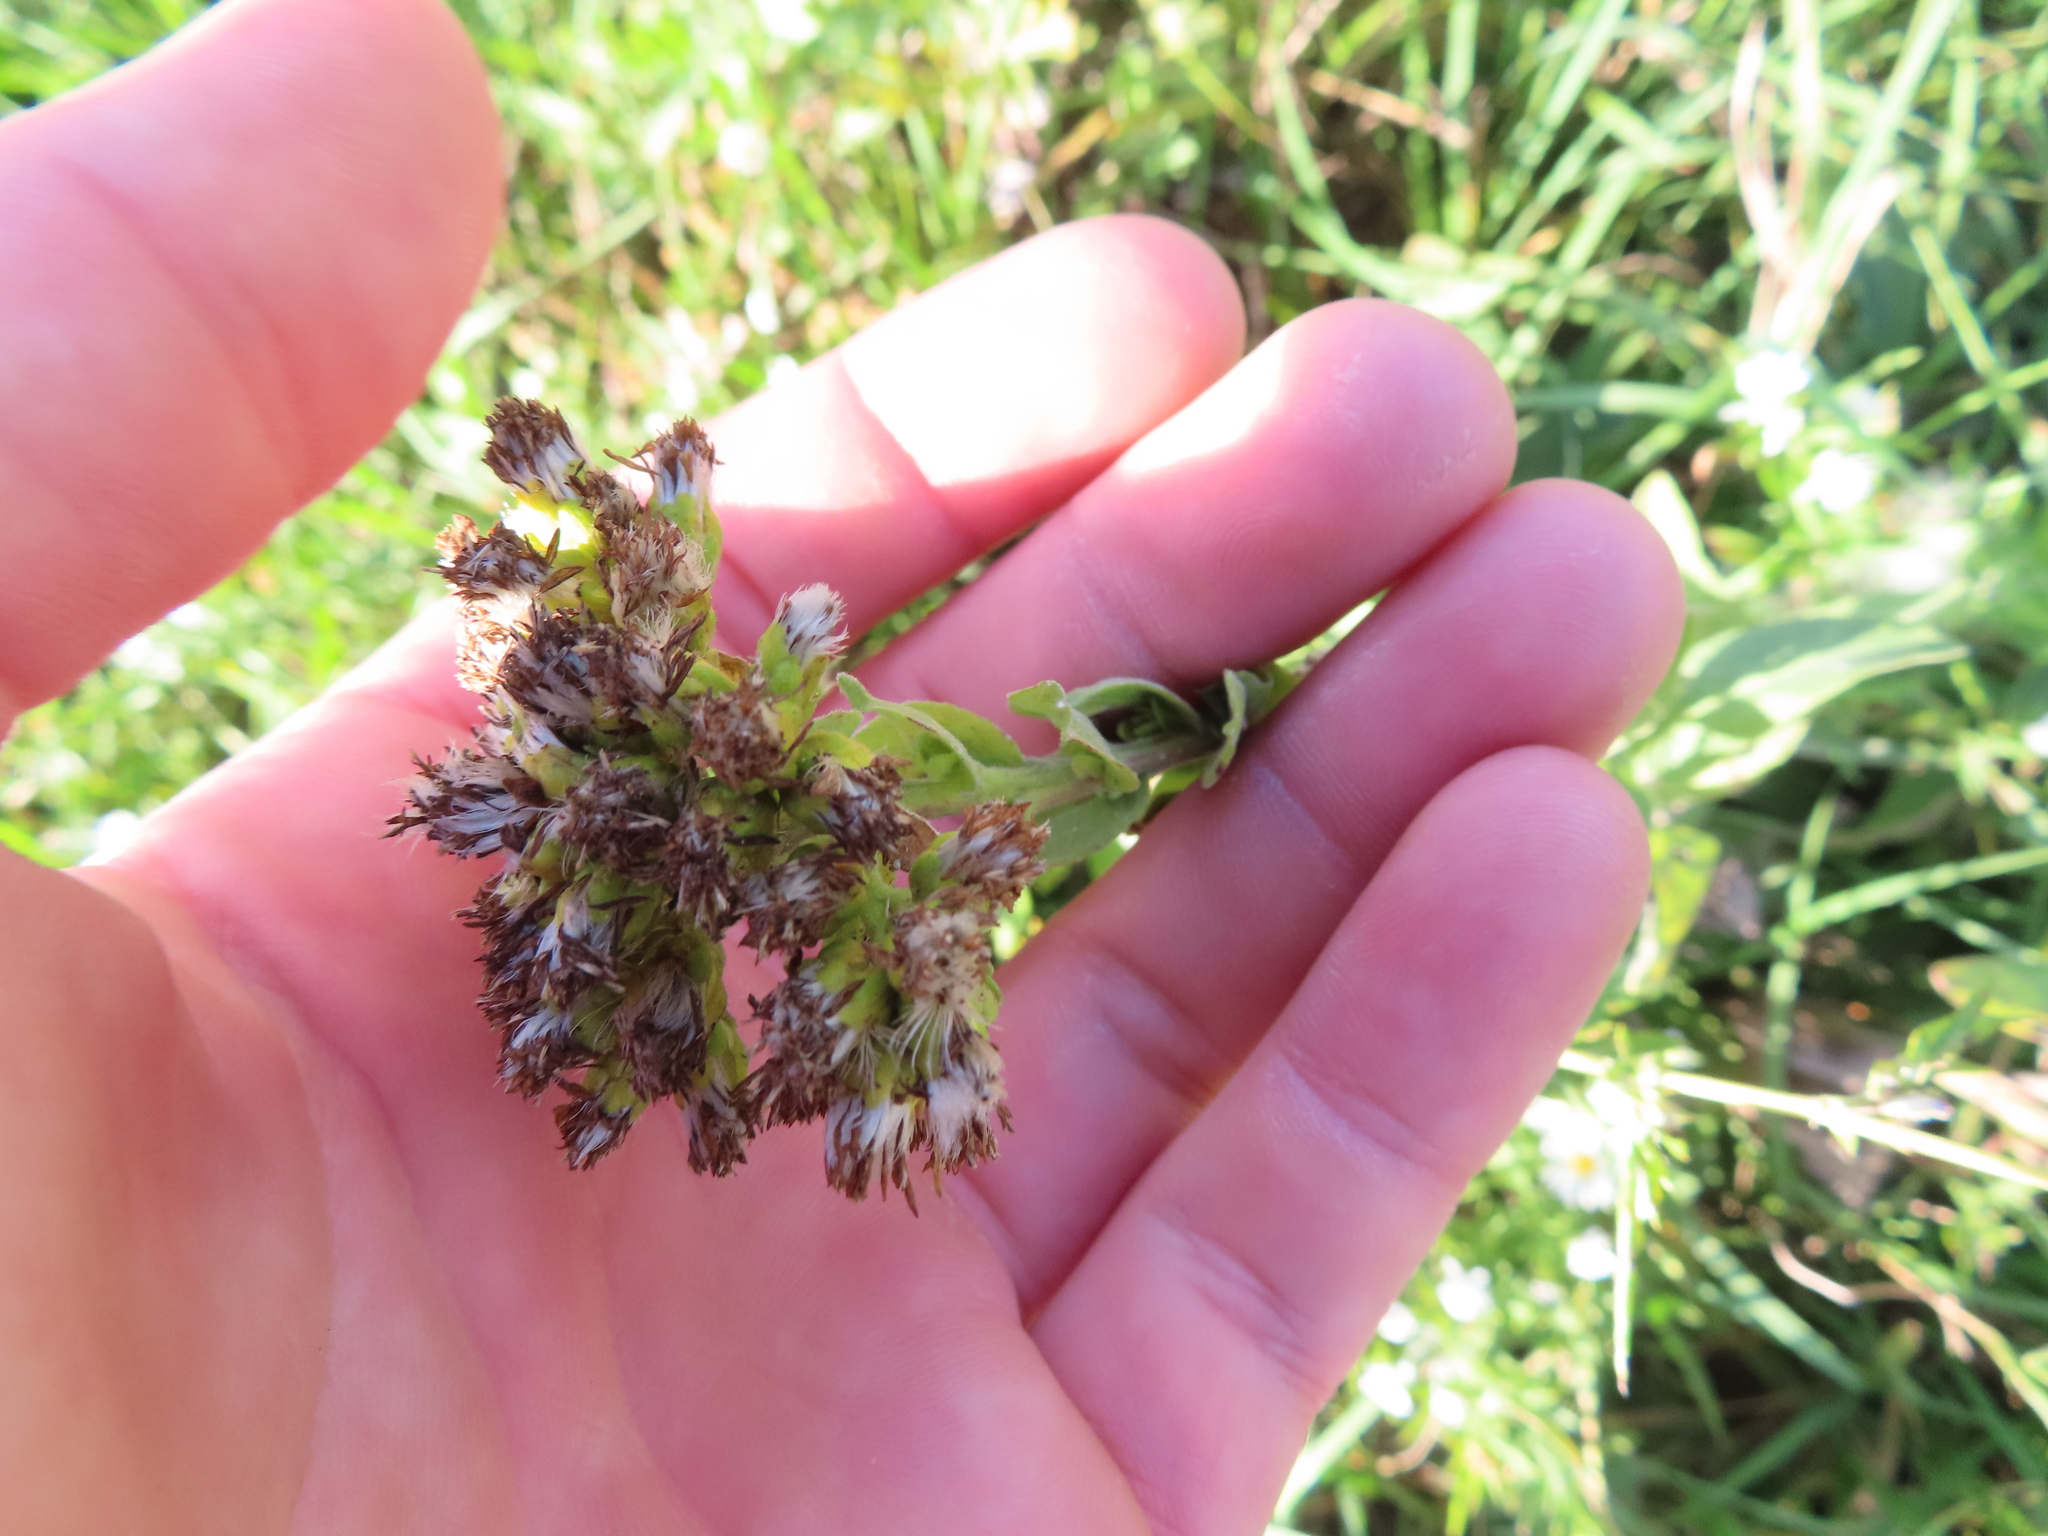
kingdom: Plantae
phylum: Tracheophyta
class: Magnoliopsida
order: Asterales
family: Asteraceae
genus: Solidago
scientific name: Solidago rigida
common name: Rigid goldenrod
